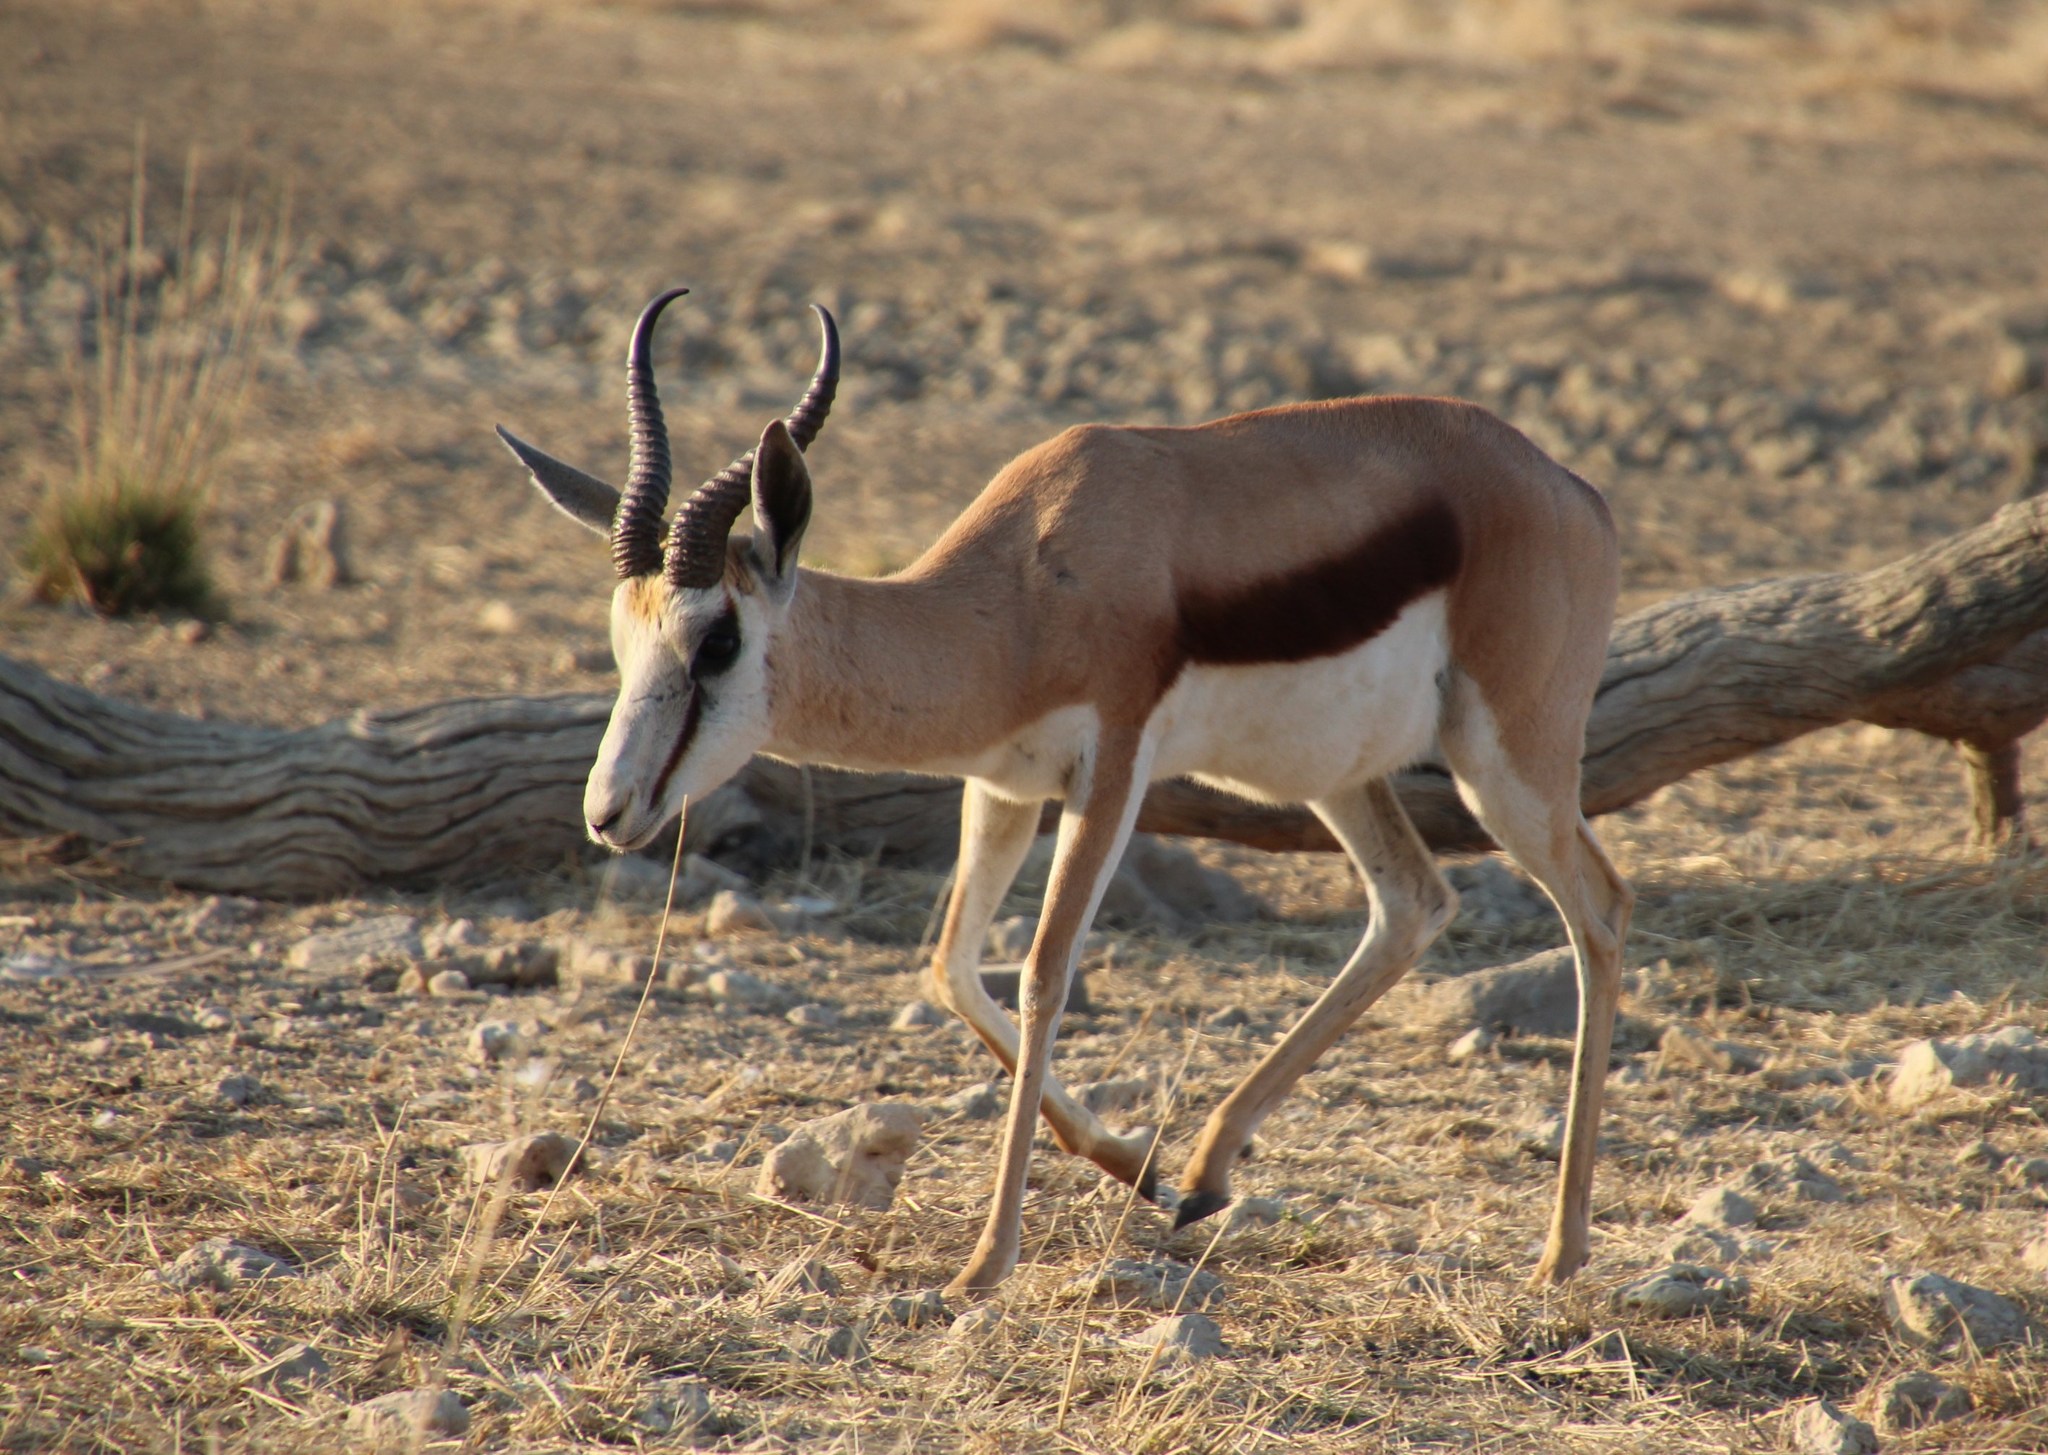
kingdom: Animalia
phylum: Chordata
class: Mammalia
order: Artiodactyla
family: Bovidae
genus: Antidorcas
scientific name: Antidorcas marsupialis
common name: Springbok
